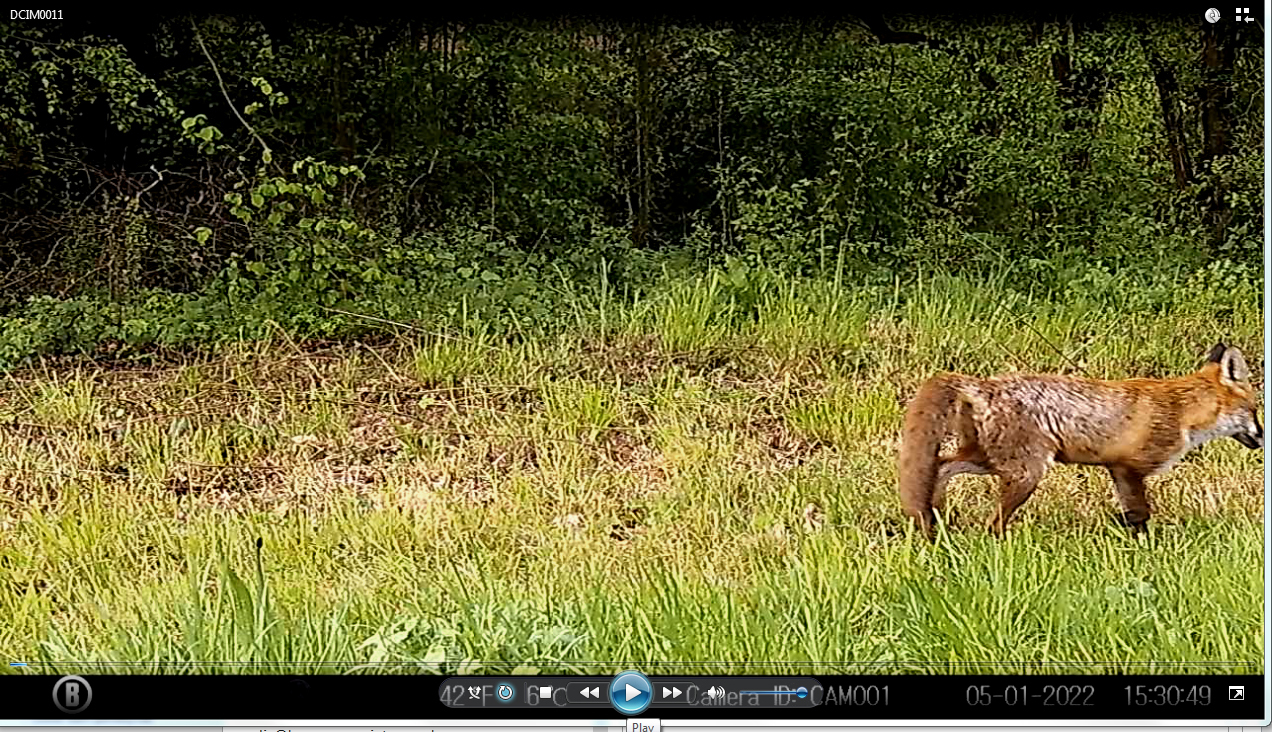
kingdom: Animalia
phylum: Chordata
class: Mammalia
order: Carnivora
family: Canidae
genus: Vulpes
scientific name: Vulpes vulpes
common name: Red fox
